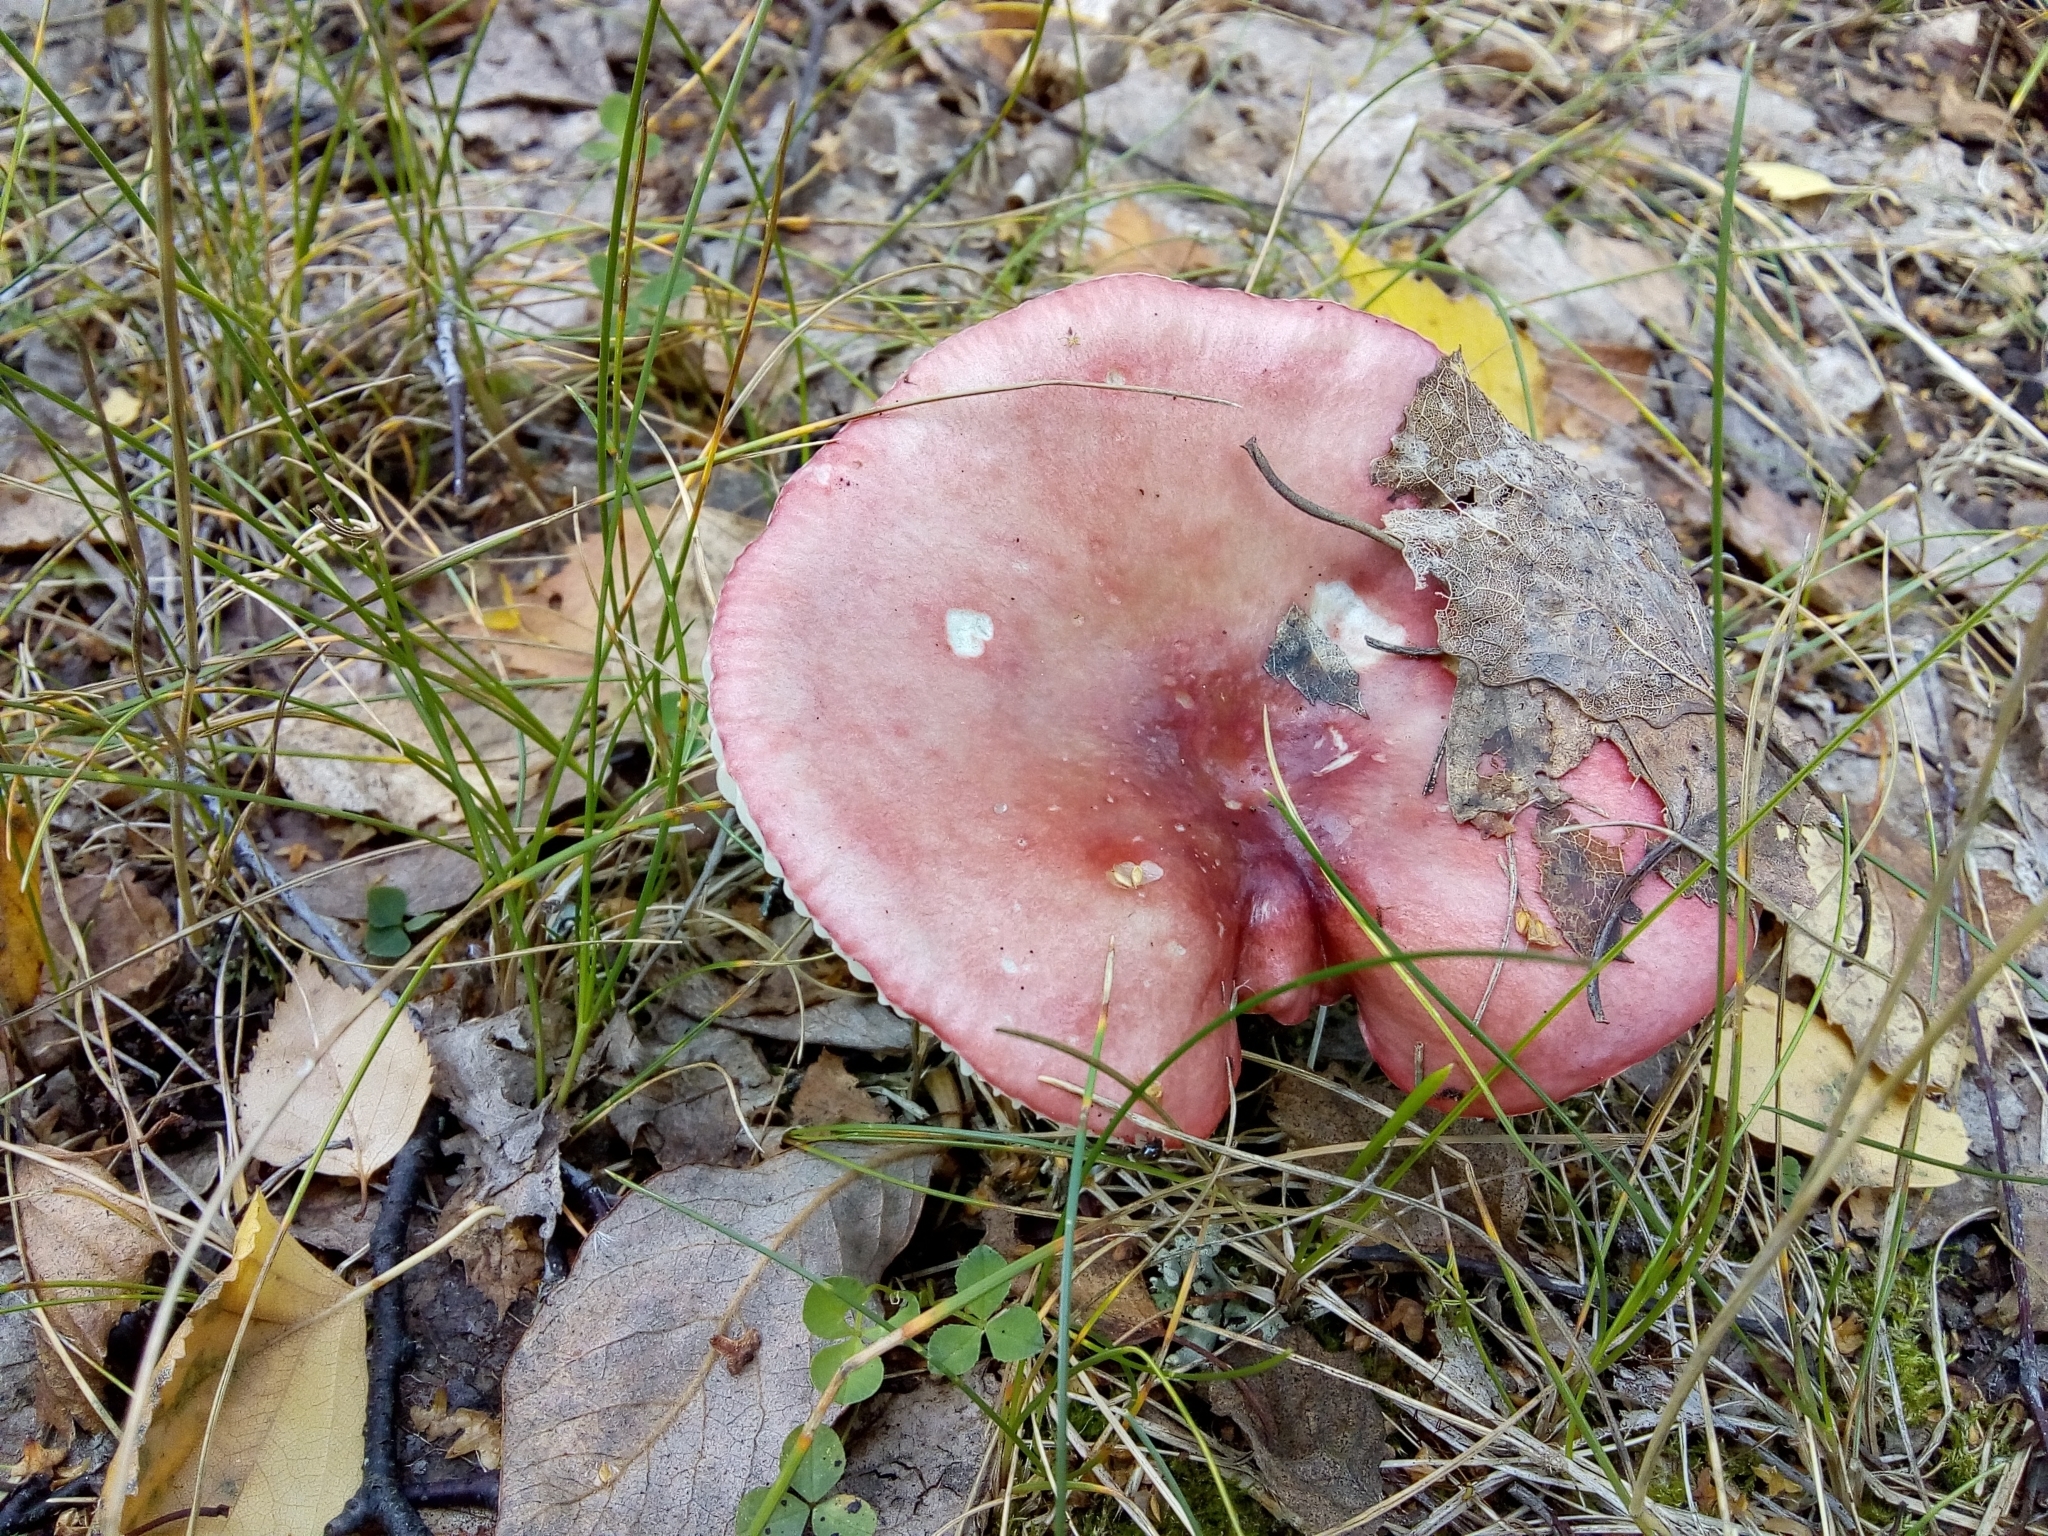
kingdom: Fungi
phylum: Basidiomycota
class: Agaricomycetes
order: Russulales
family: Russulaceae
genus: Russula
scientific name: Russula
